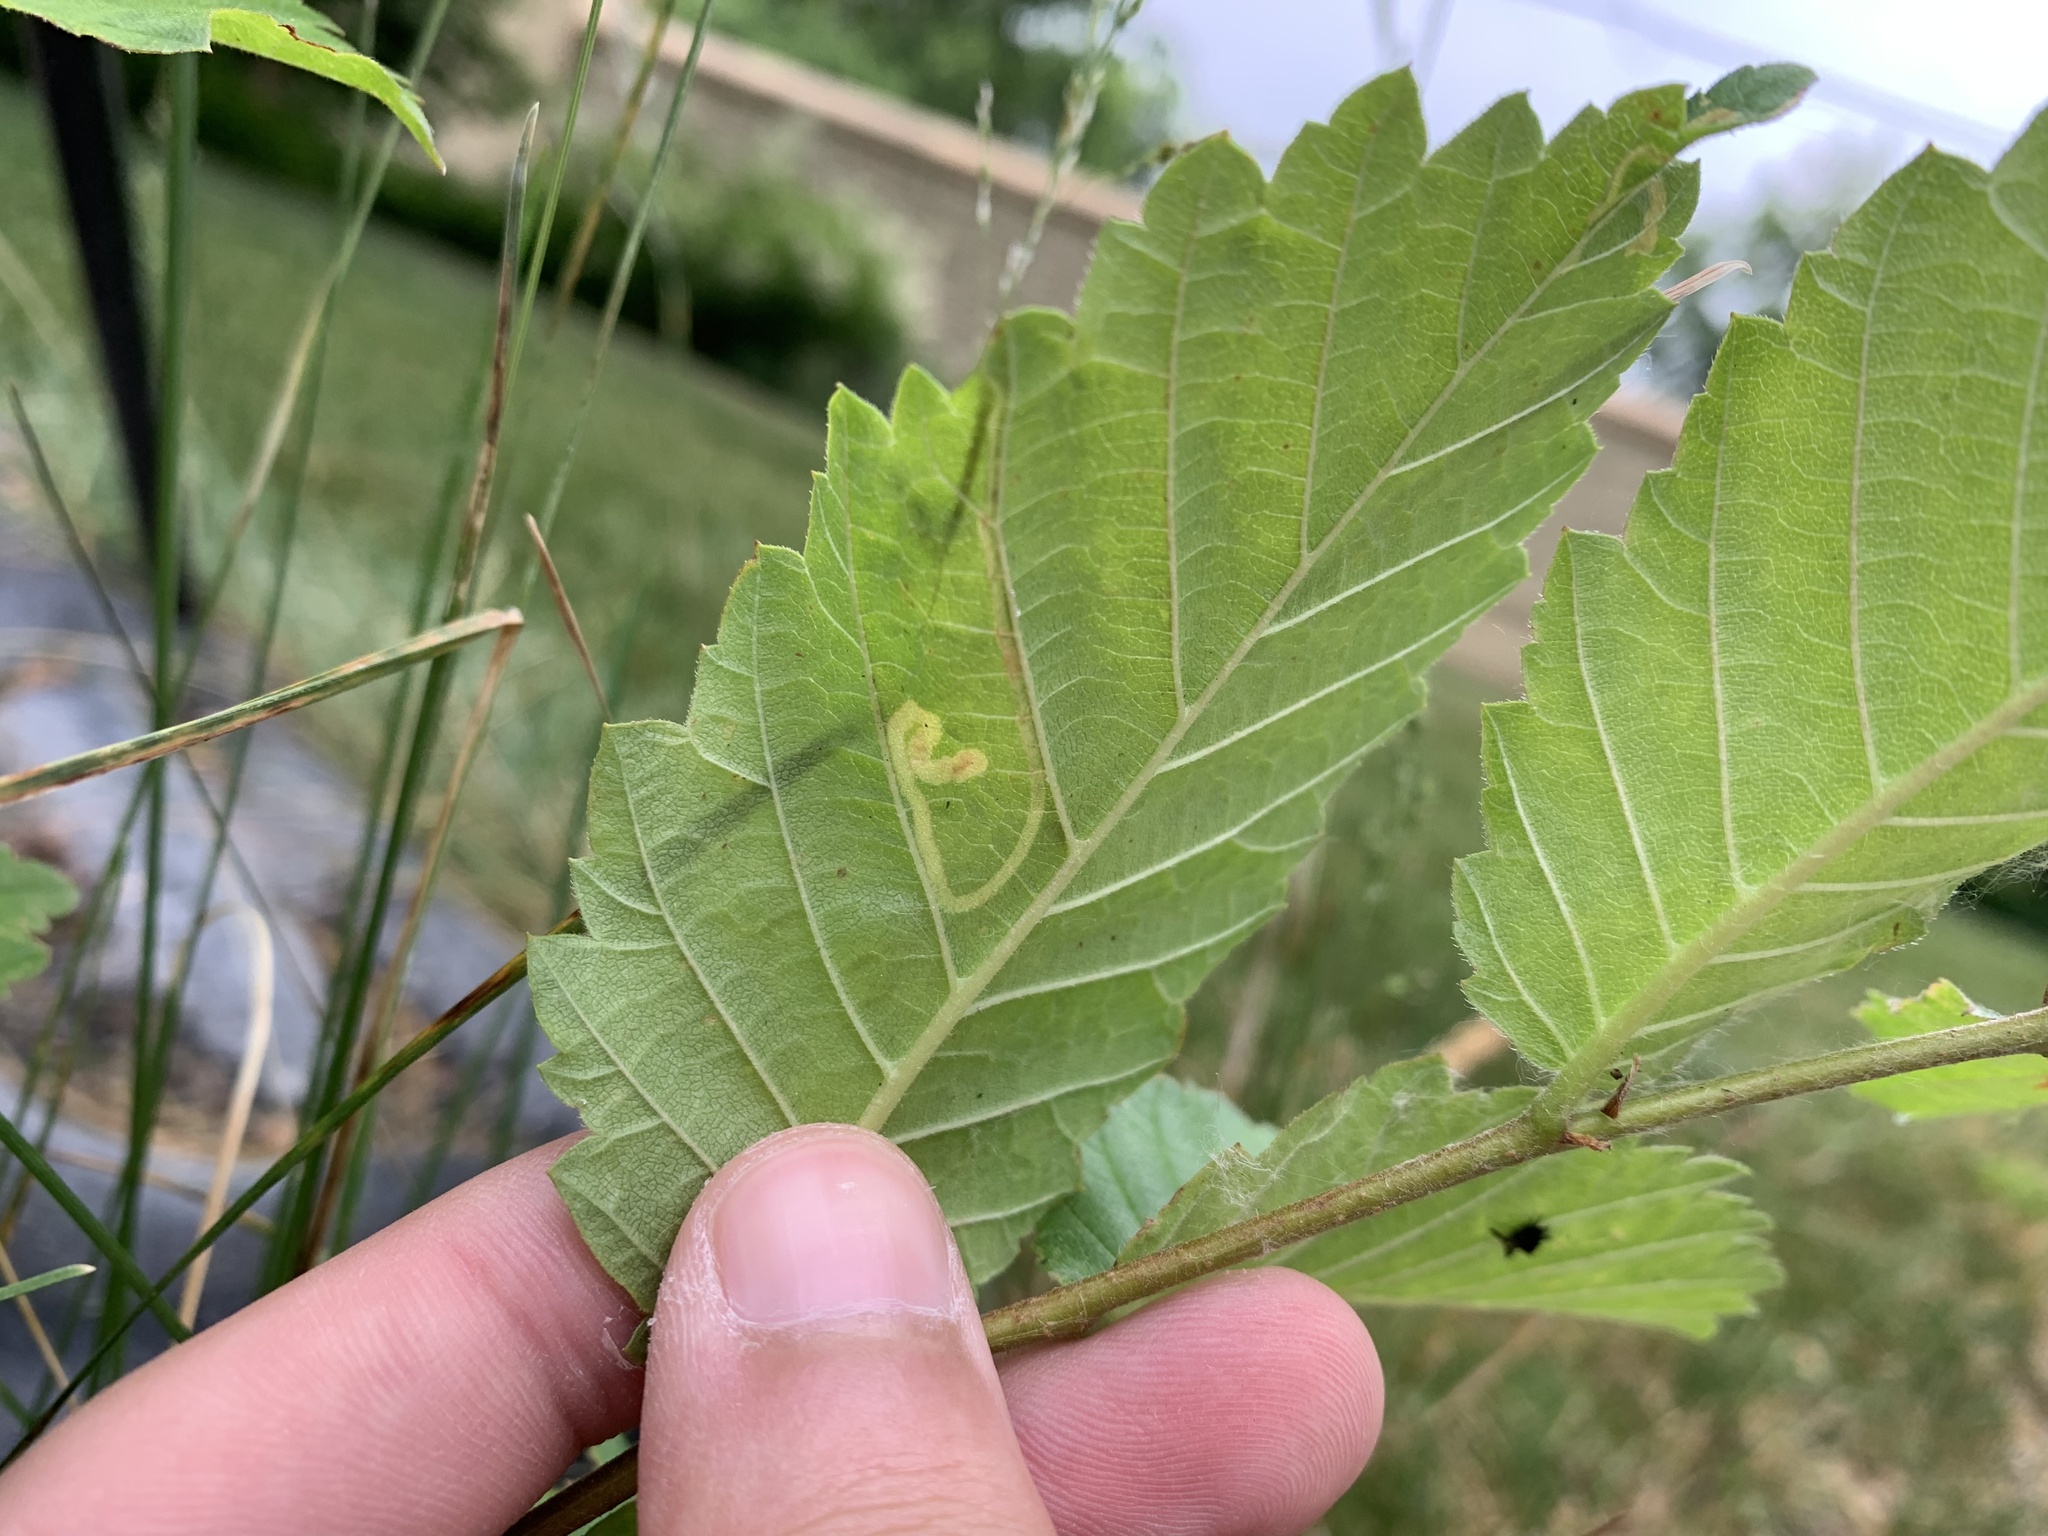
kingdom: Animalia
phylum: Arthropoda
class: Insecta
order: Diptera
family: Agromyzidae
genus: Agromyza
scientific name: Agromyza aristata
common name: Elm agromyzid leafminer
